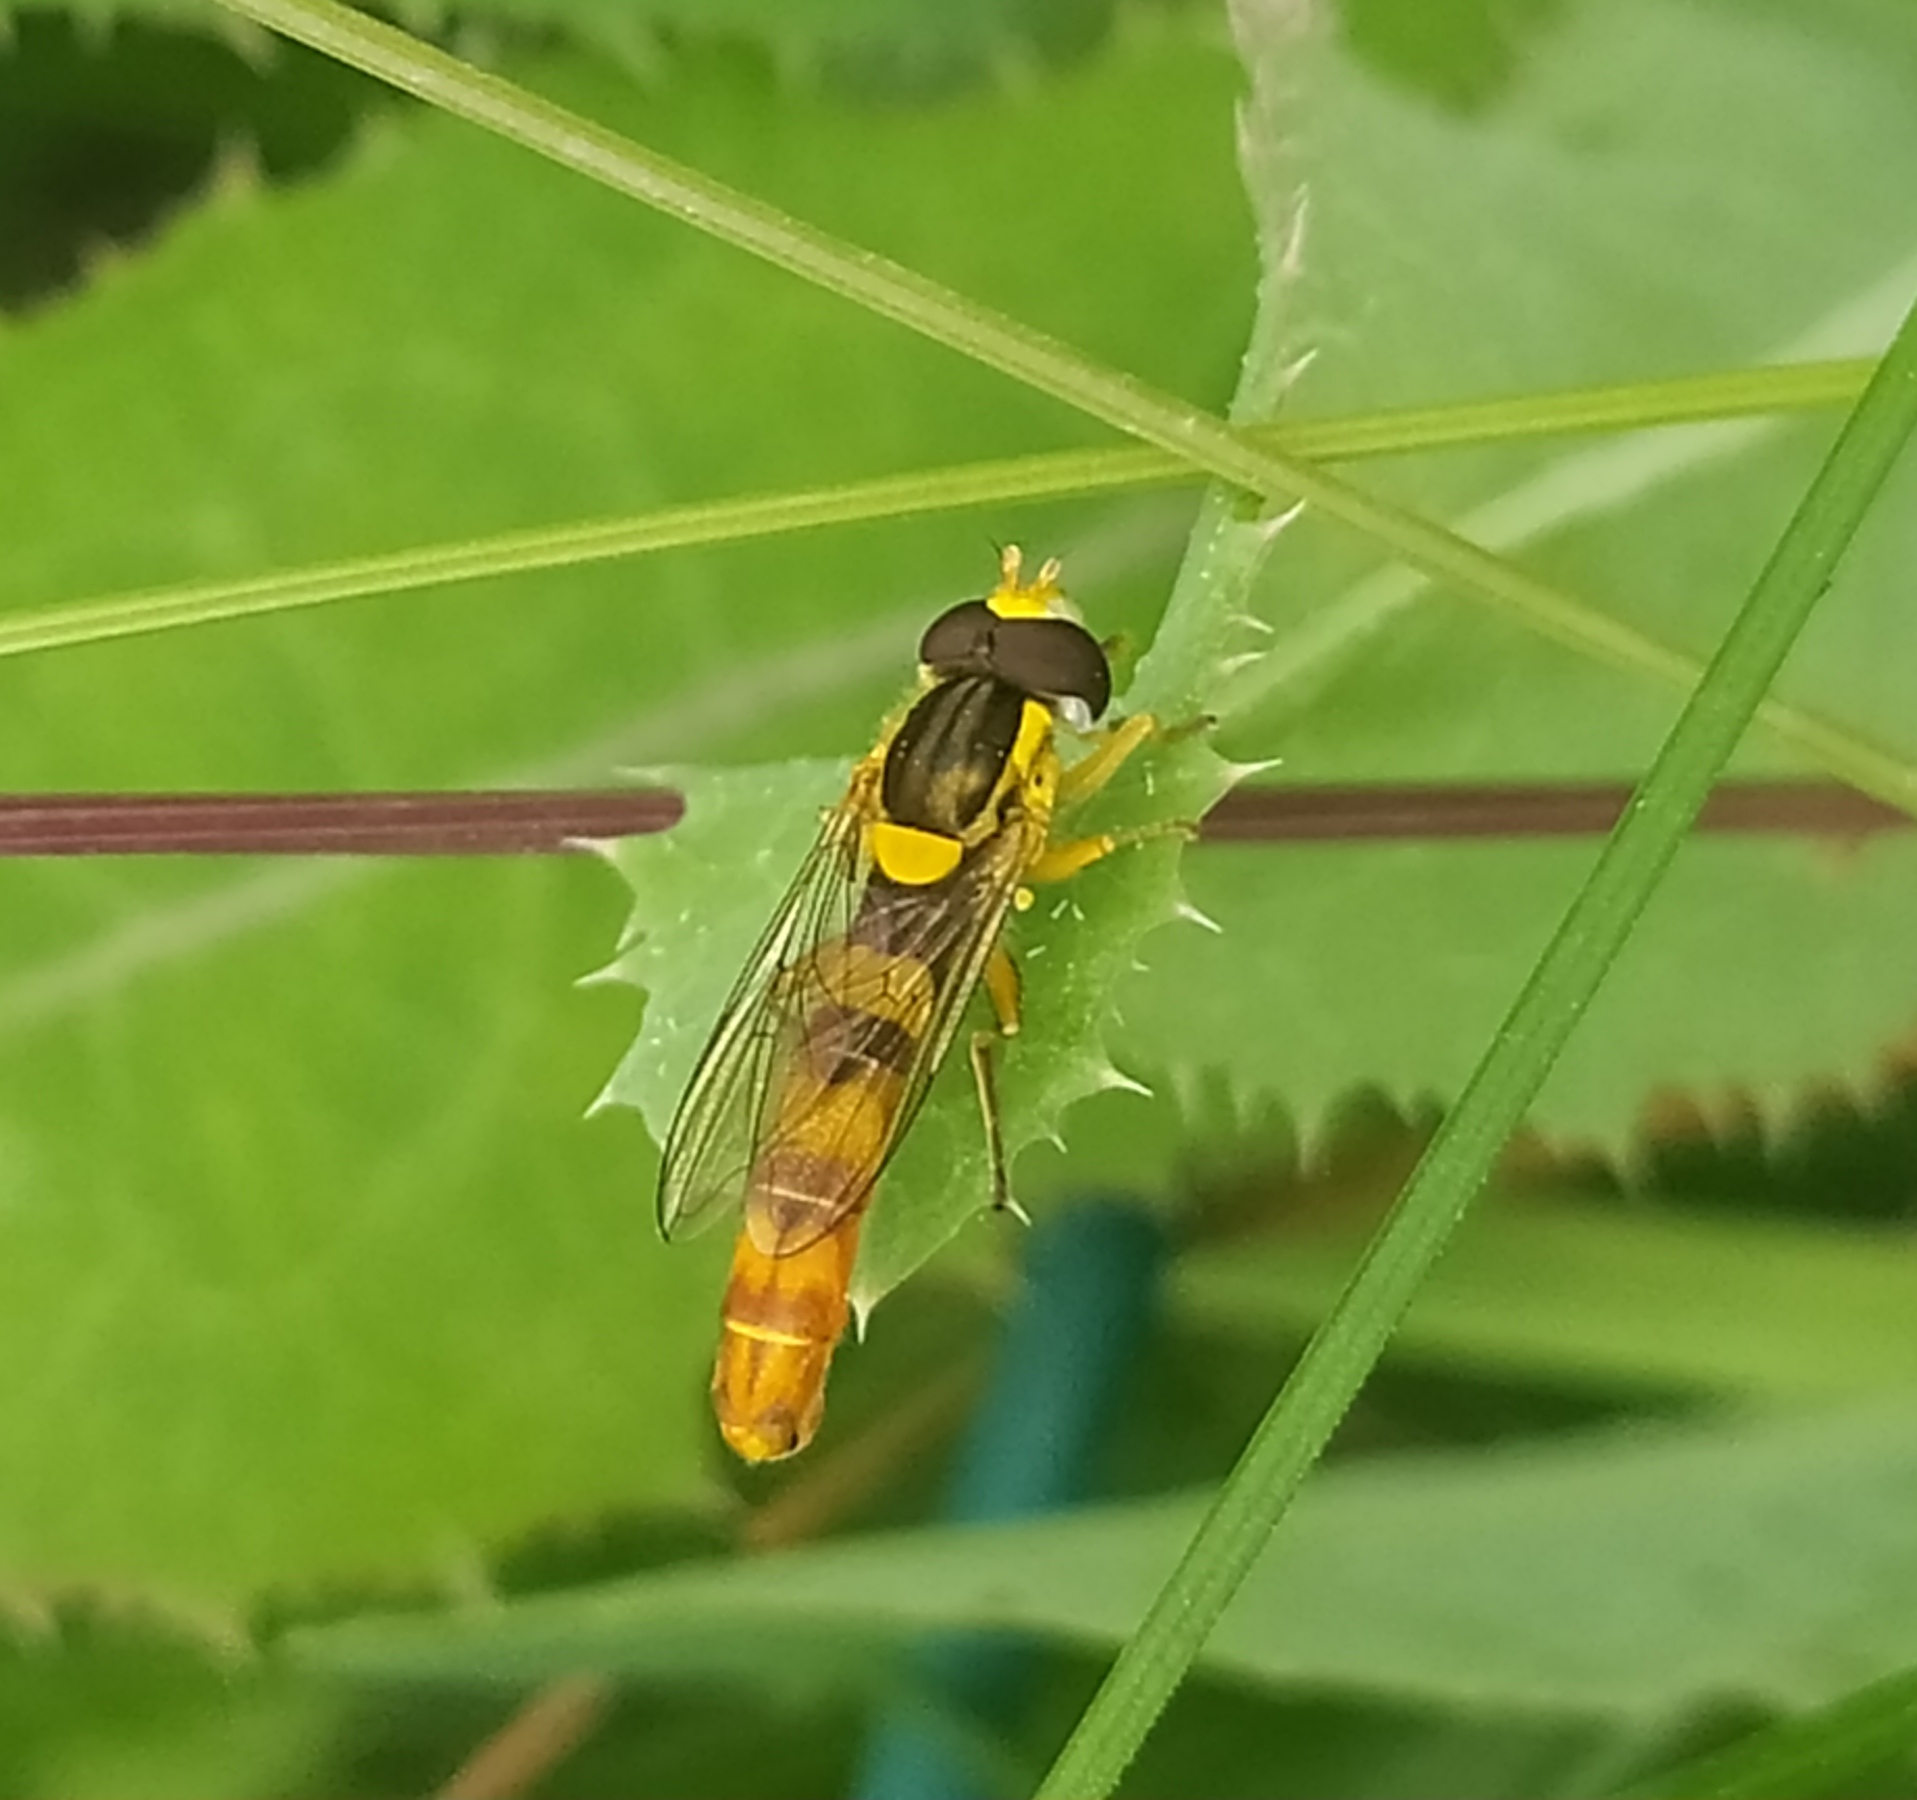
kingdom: Animalia
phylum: Arthropoda
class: Insecta
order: Diptera
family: Syrphidae
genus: Sphaerophoria
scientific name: Sphaerophoria scripta
